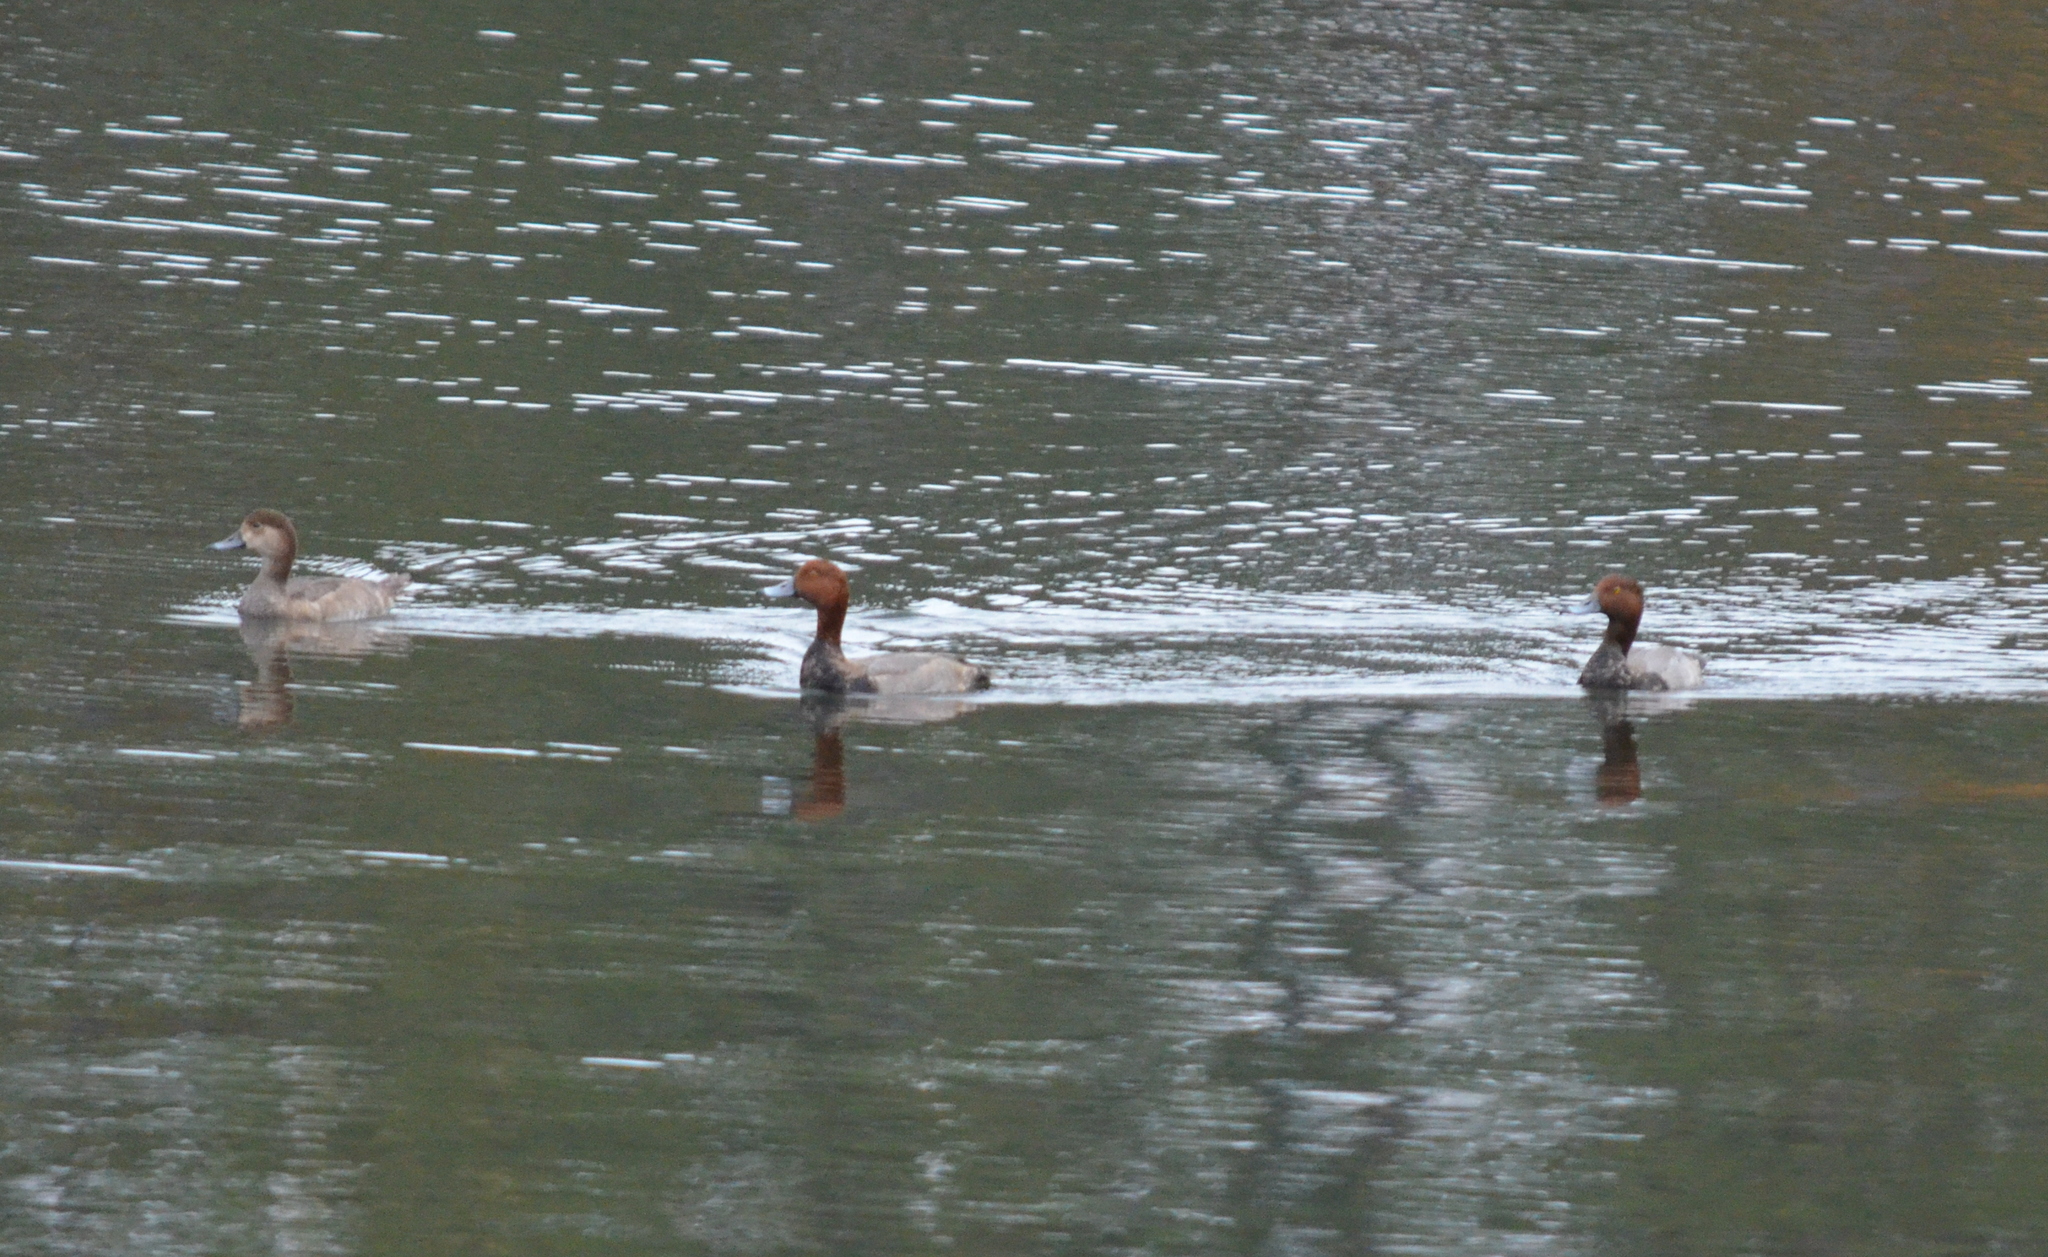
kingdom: Animalia
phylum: Chordata
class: Aves
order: Anseriformes
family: Anatidae
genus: Aythya
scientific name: Aythya americana
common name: Redhead
